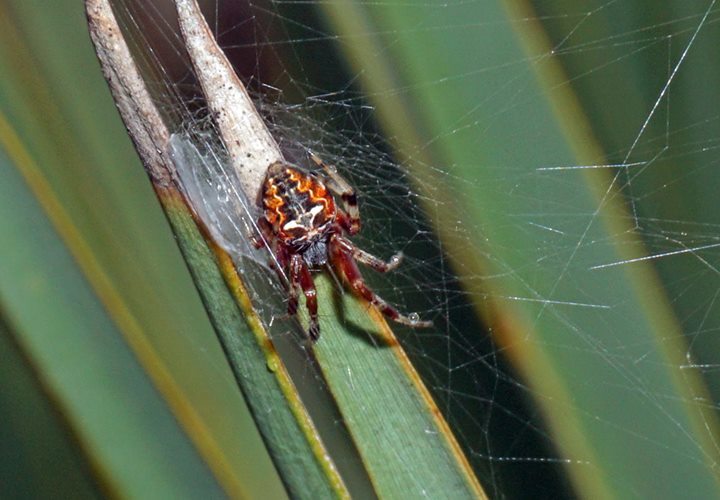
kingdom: Animalia
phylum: Arthropoda
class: Arachnida
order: Araneae
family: Araneidae
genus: Metepeira
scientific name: Metepeira labyrinthea
